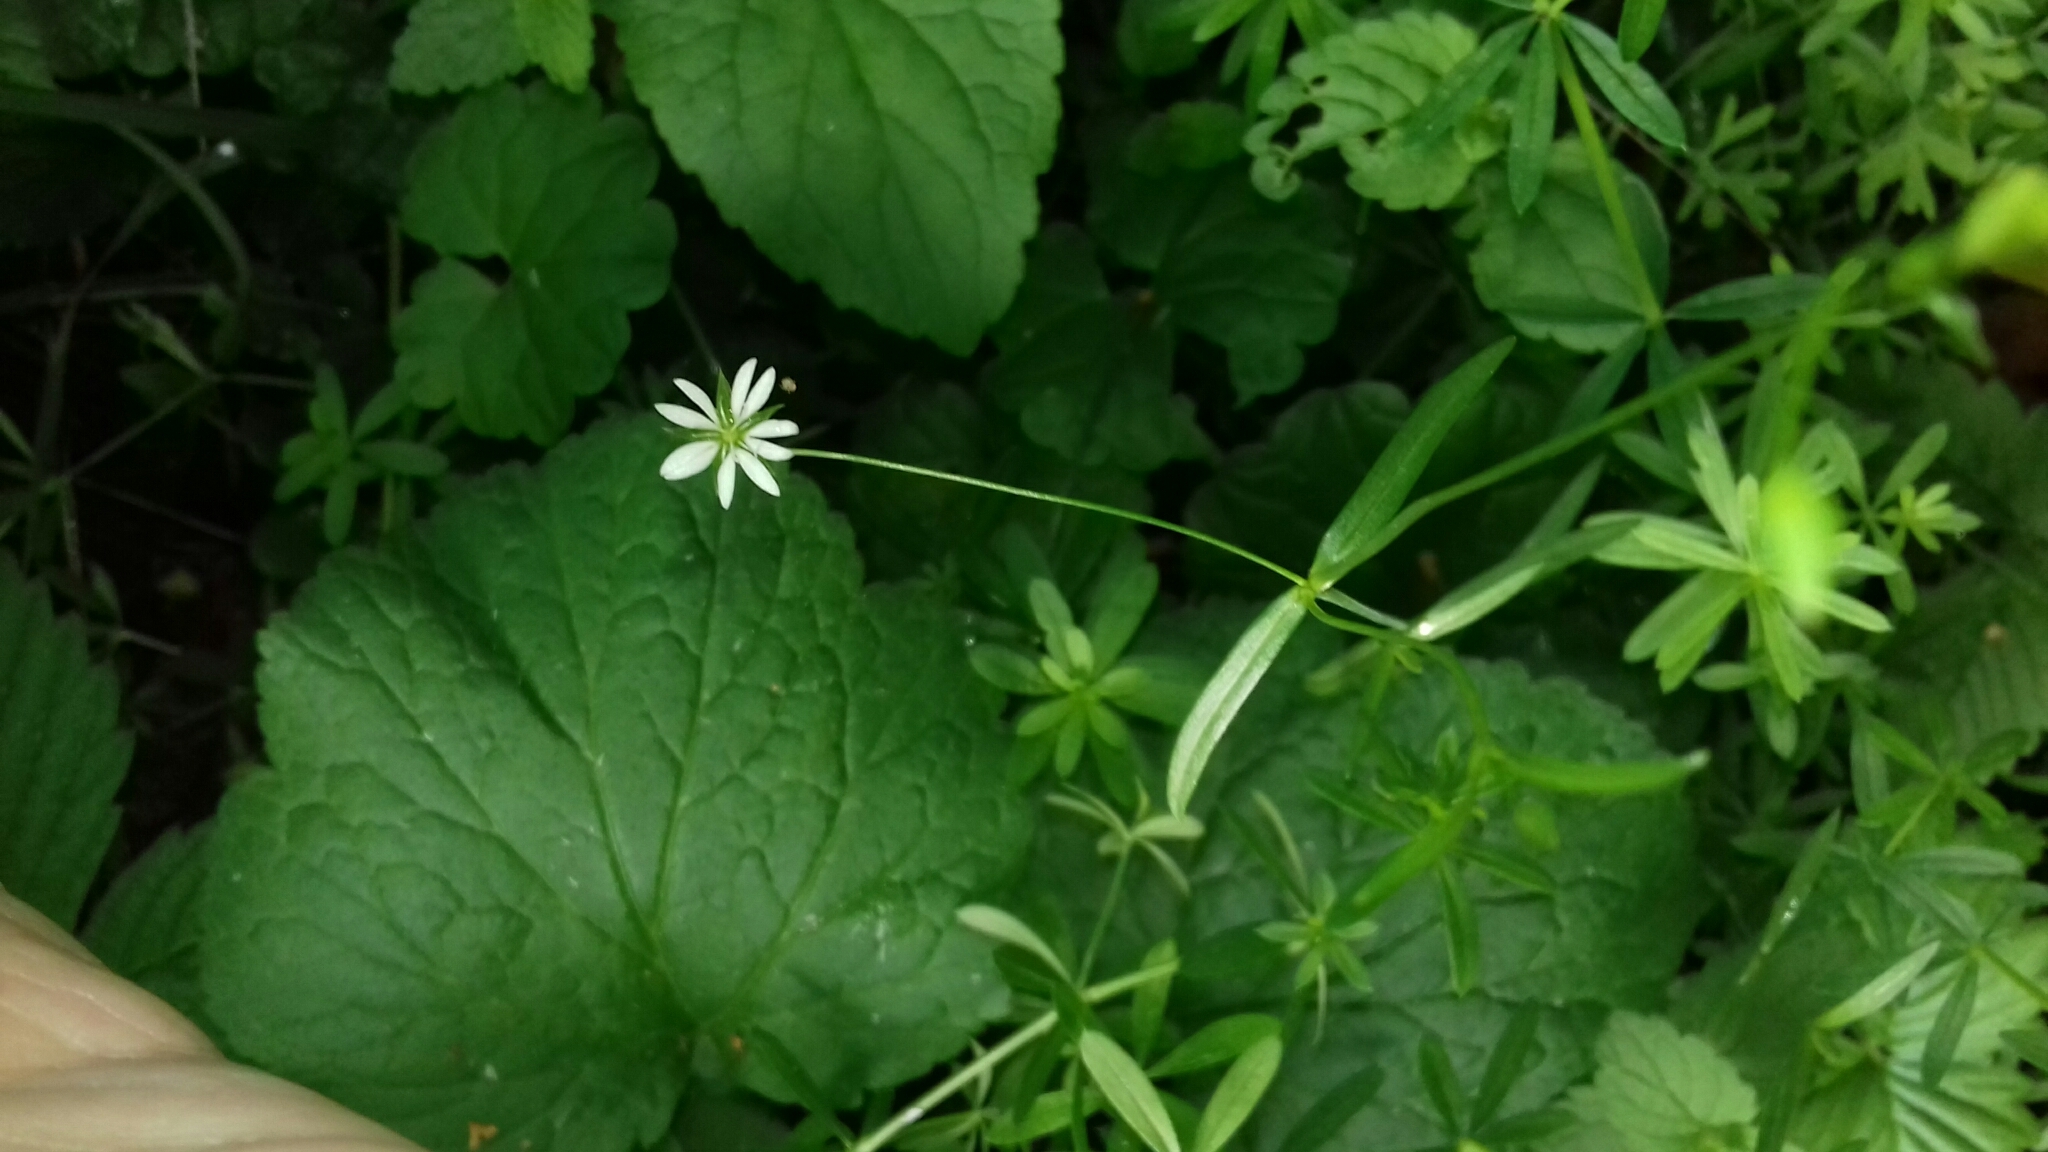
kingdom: Plantae
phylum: Tracheophyta
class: Magnoliopsida
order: Caryophyllales
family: Caryophyllaceae
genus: Stellaria
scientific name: Stellaria graminea
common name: Grass-like starwort
